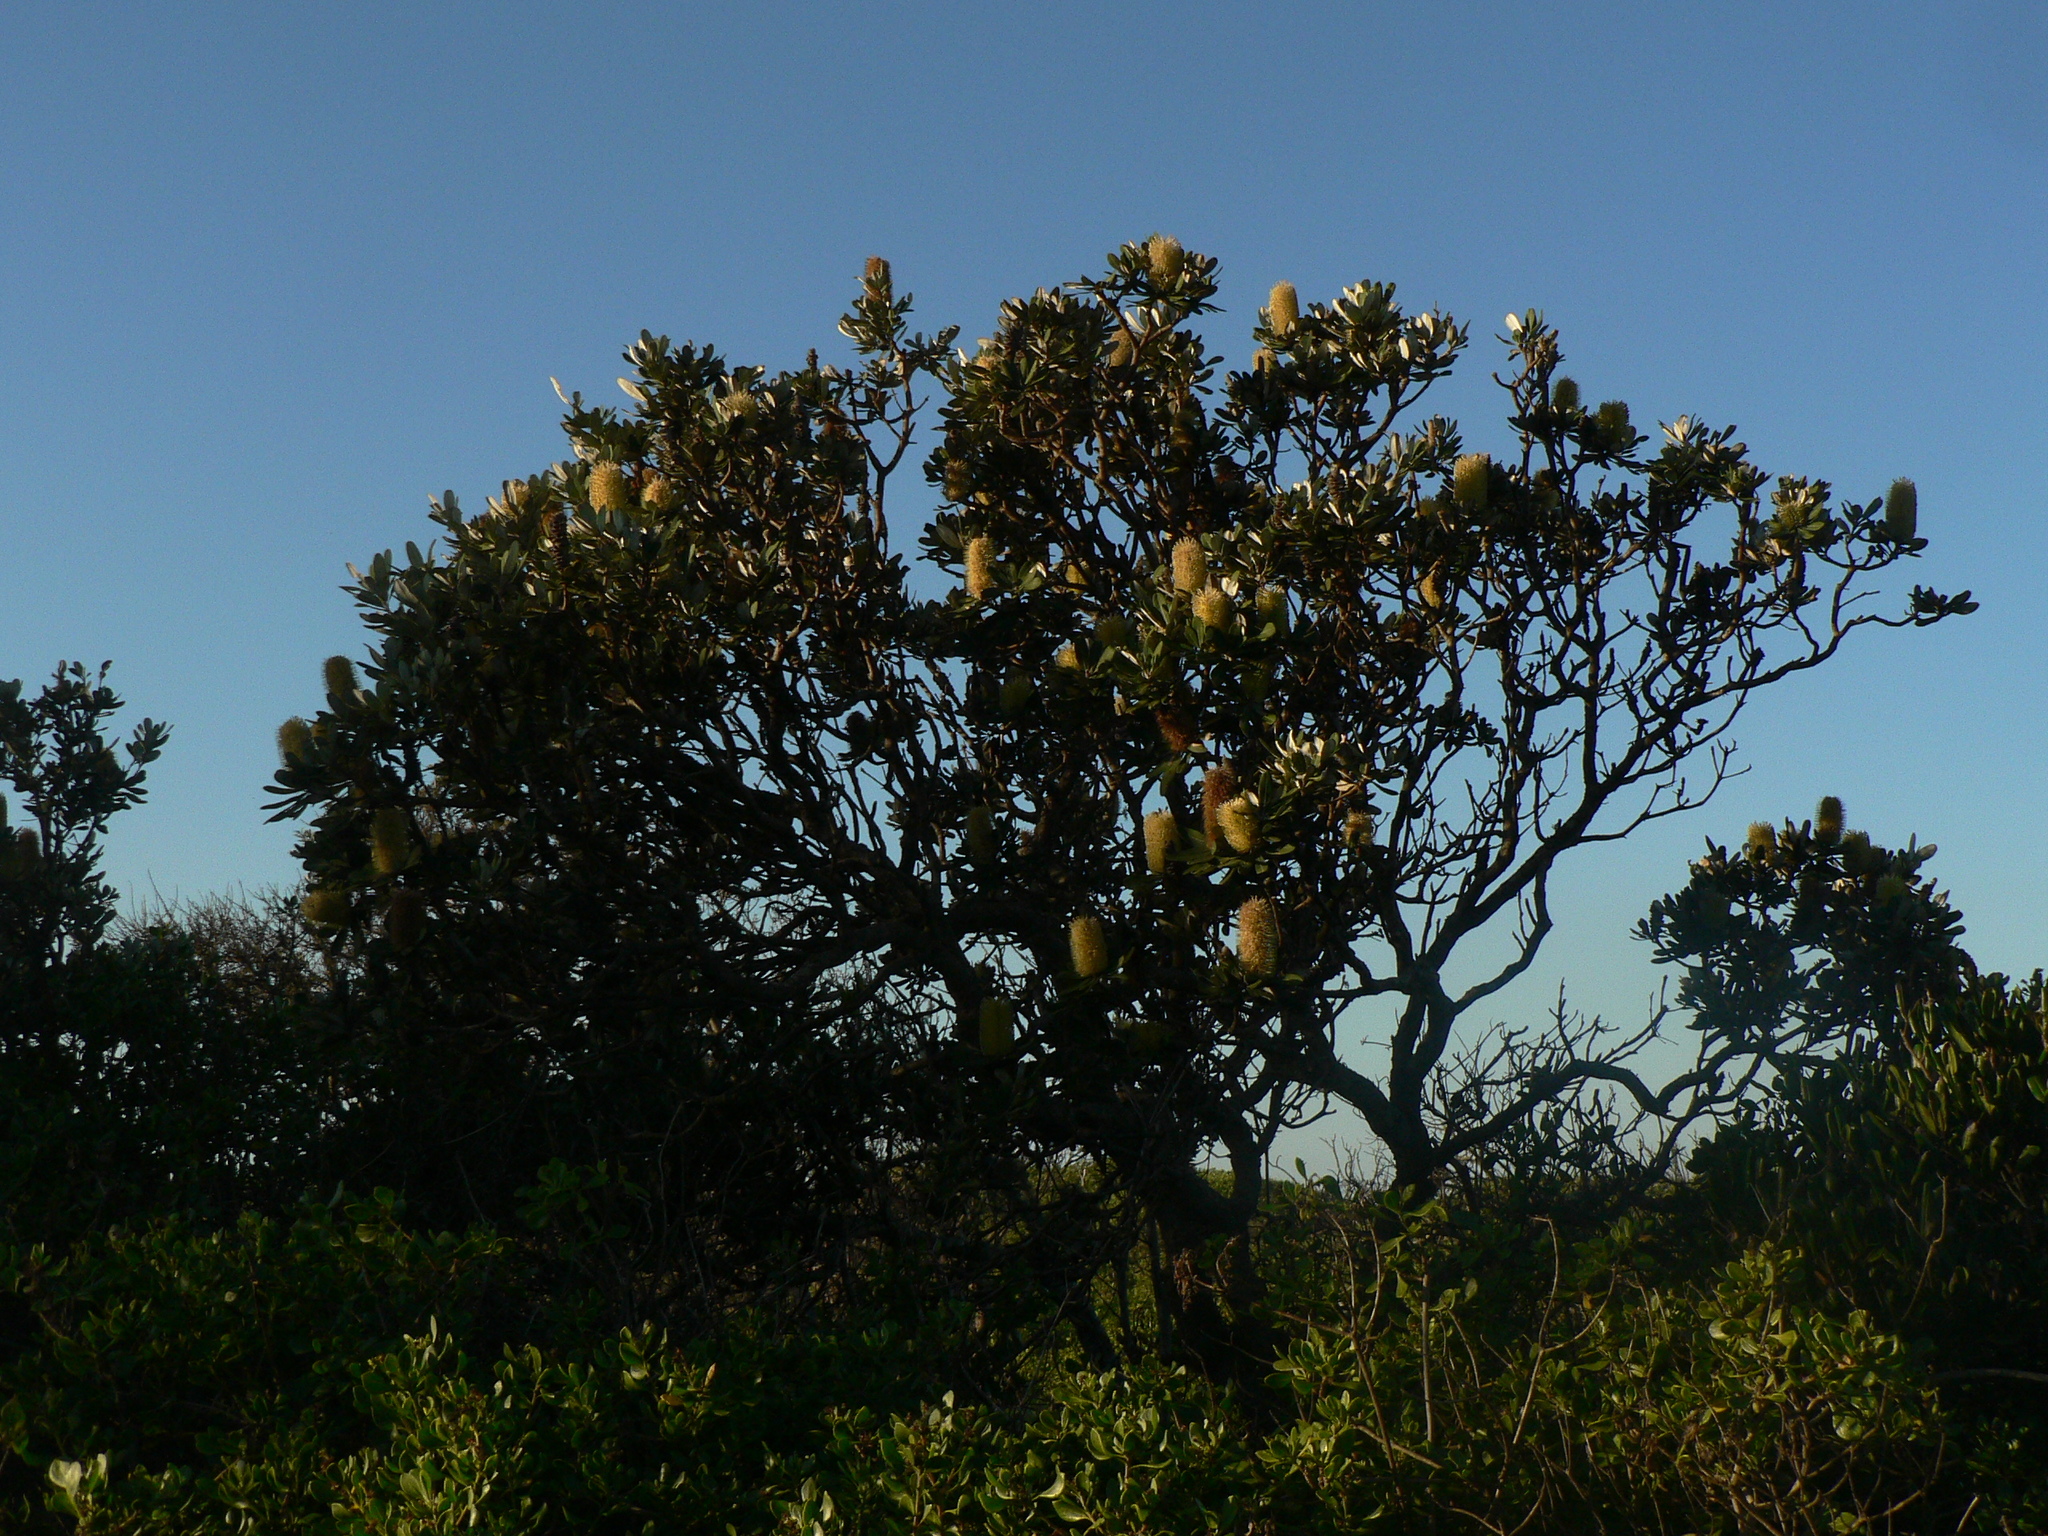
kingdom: Plantae
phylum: Tracheophyta
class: Magnoliopsida
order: Proteales
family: Proteaceae
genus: Banksia
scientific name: Banksia integrifolia
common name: White-honeysuckle
